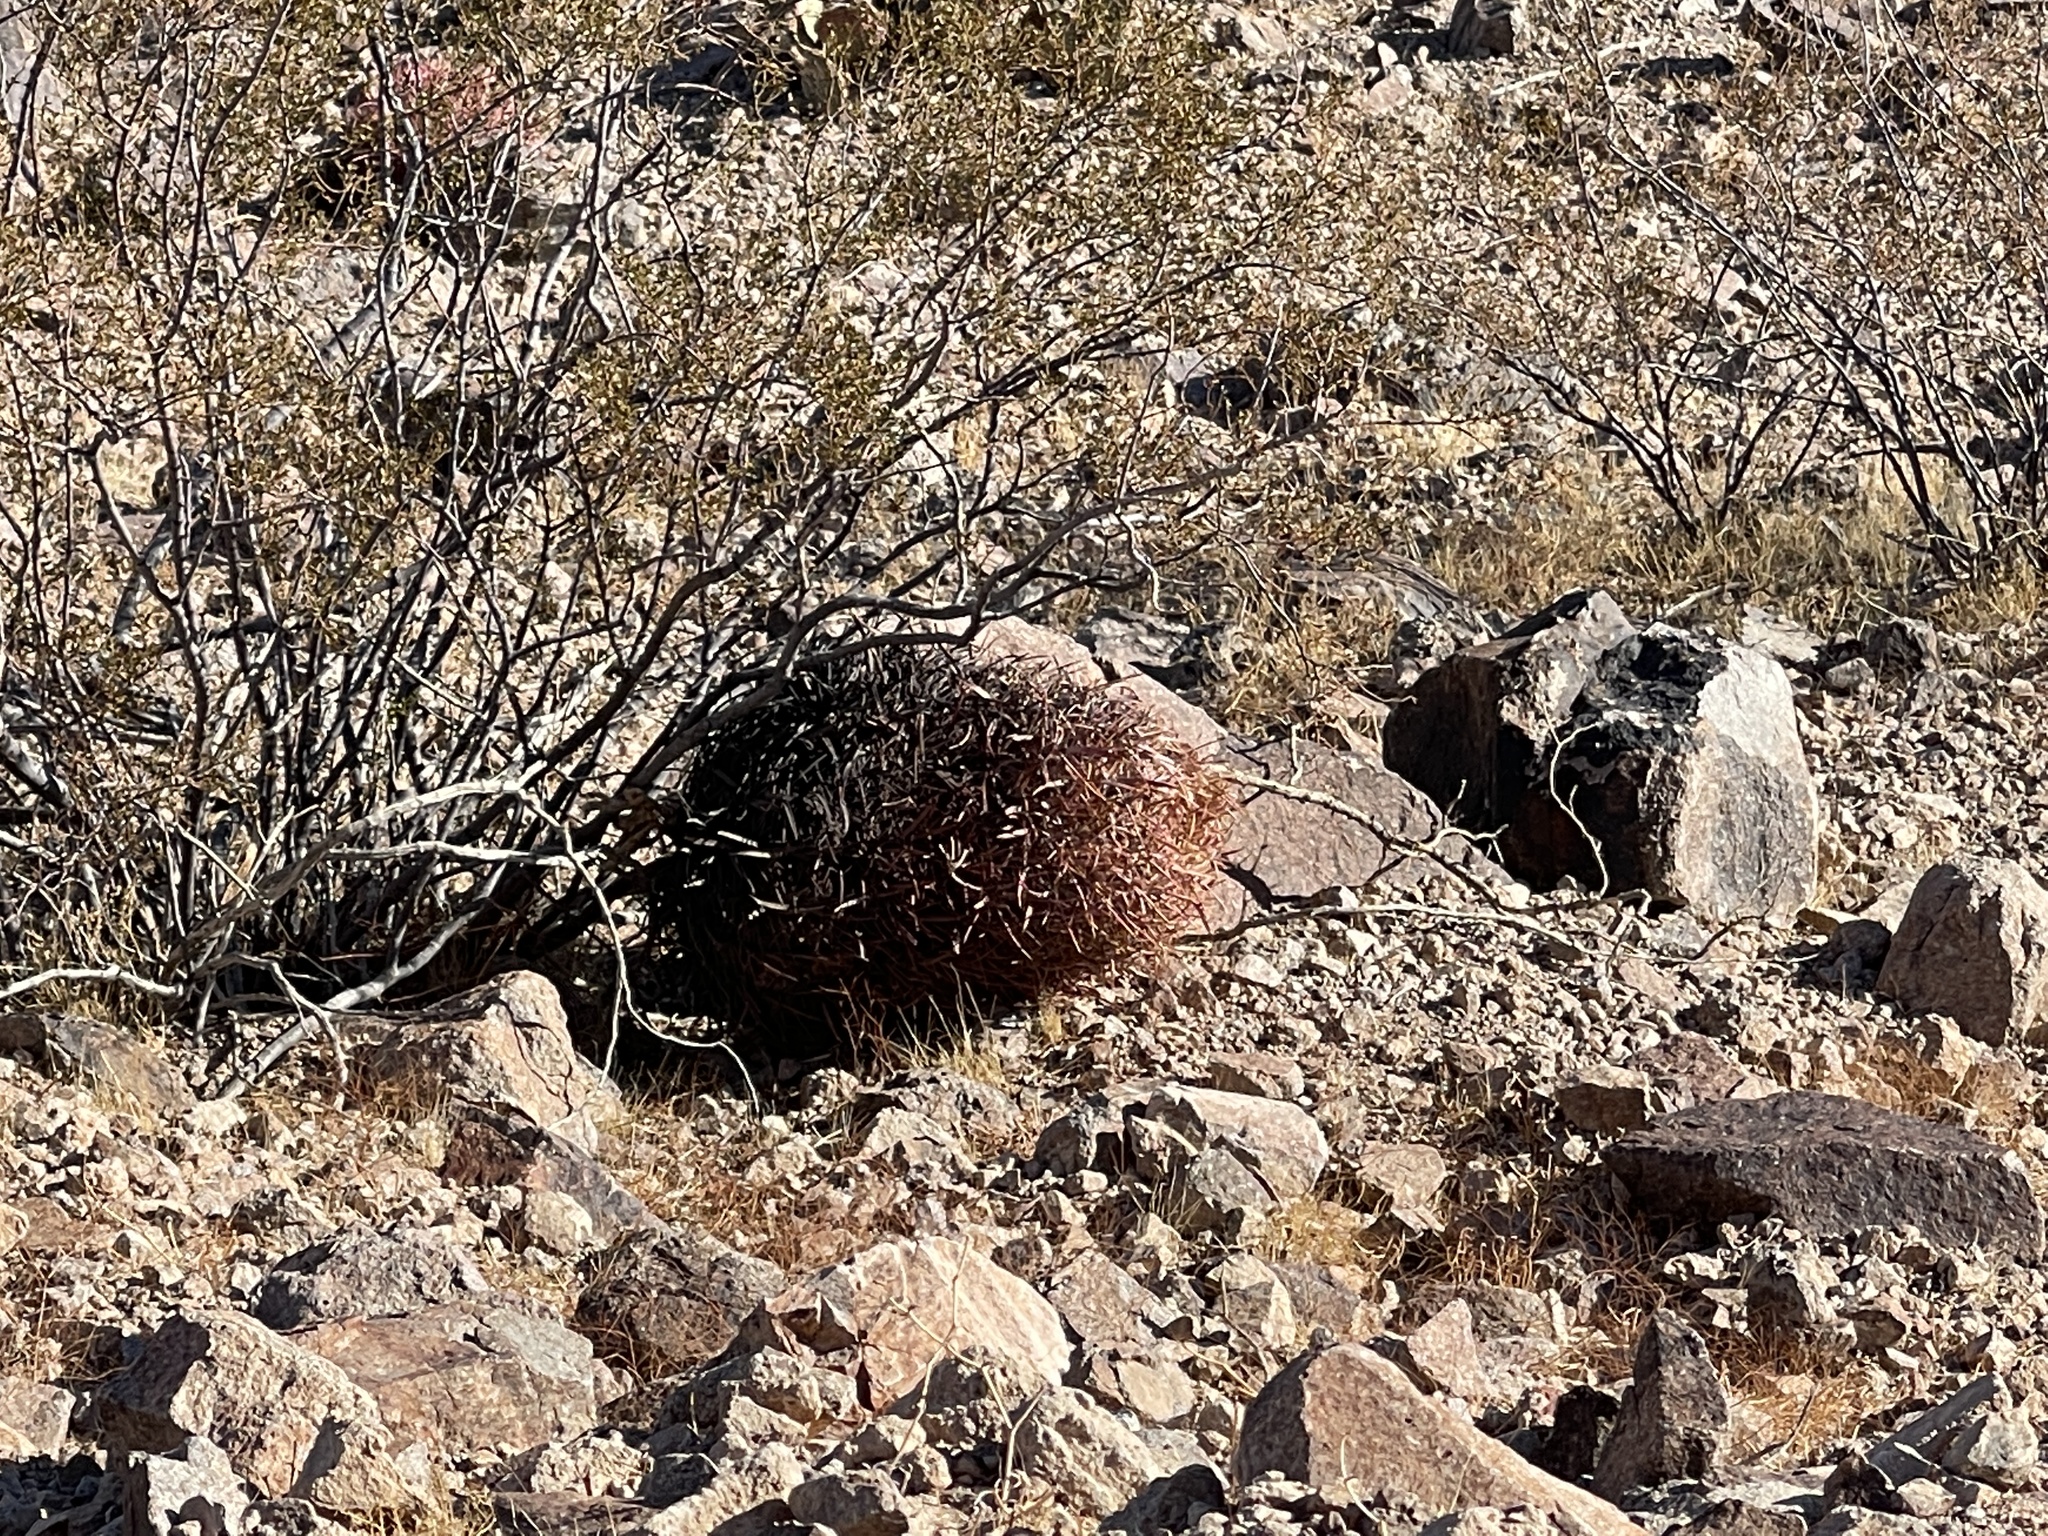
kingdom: Plantae
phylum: Tracheophyta
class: Magnoliopsida
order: Caryophyllales
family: Cactaceae
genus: Ferocactus
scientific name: Ferocactus cylindraceus
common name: California barrel cactus
